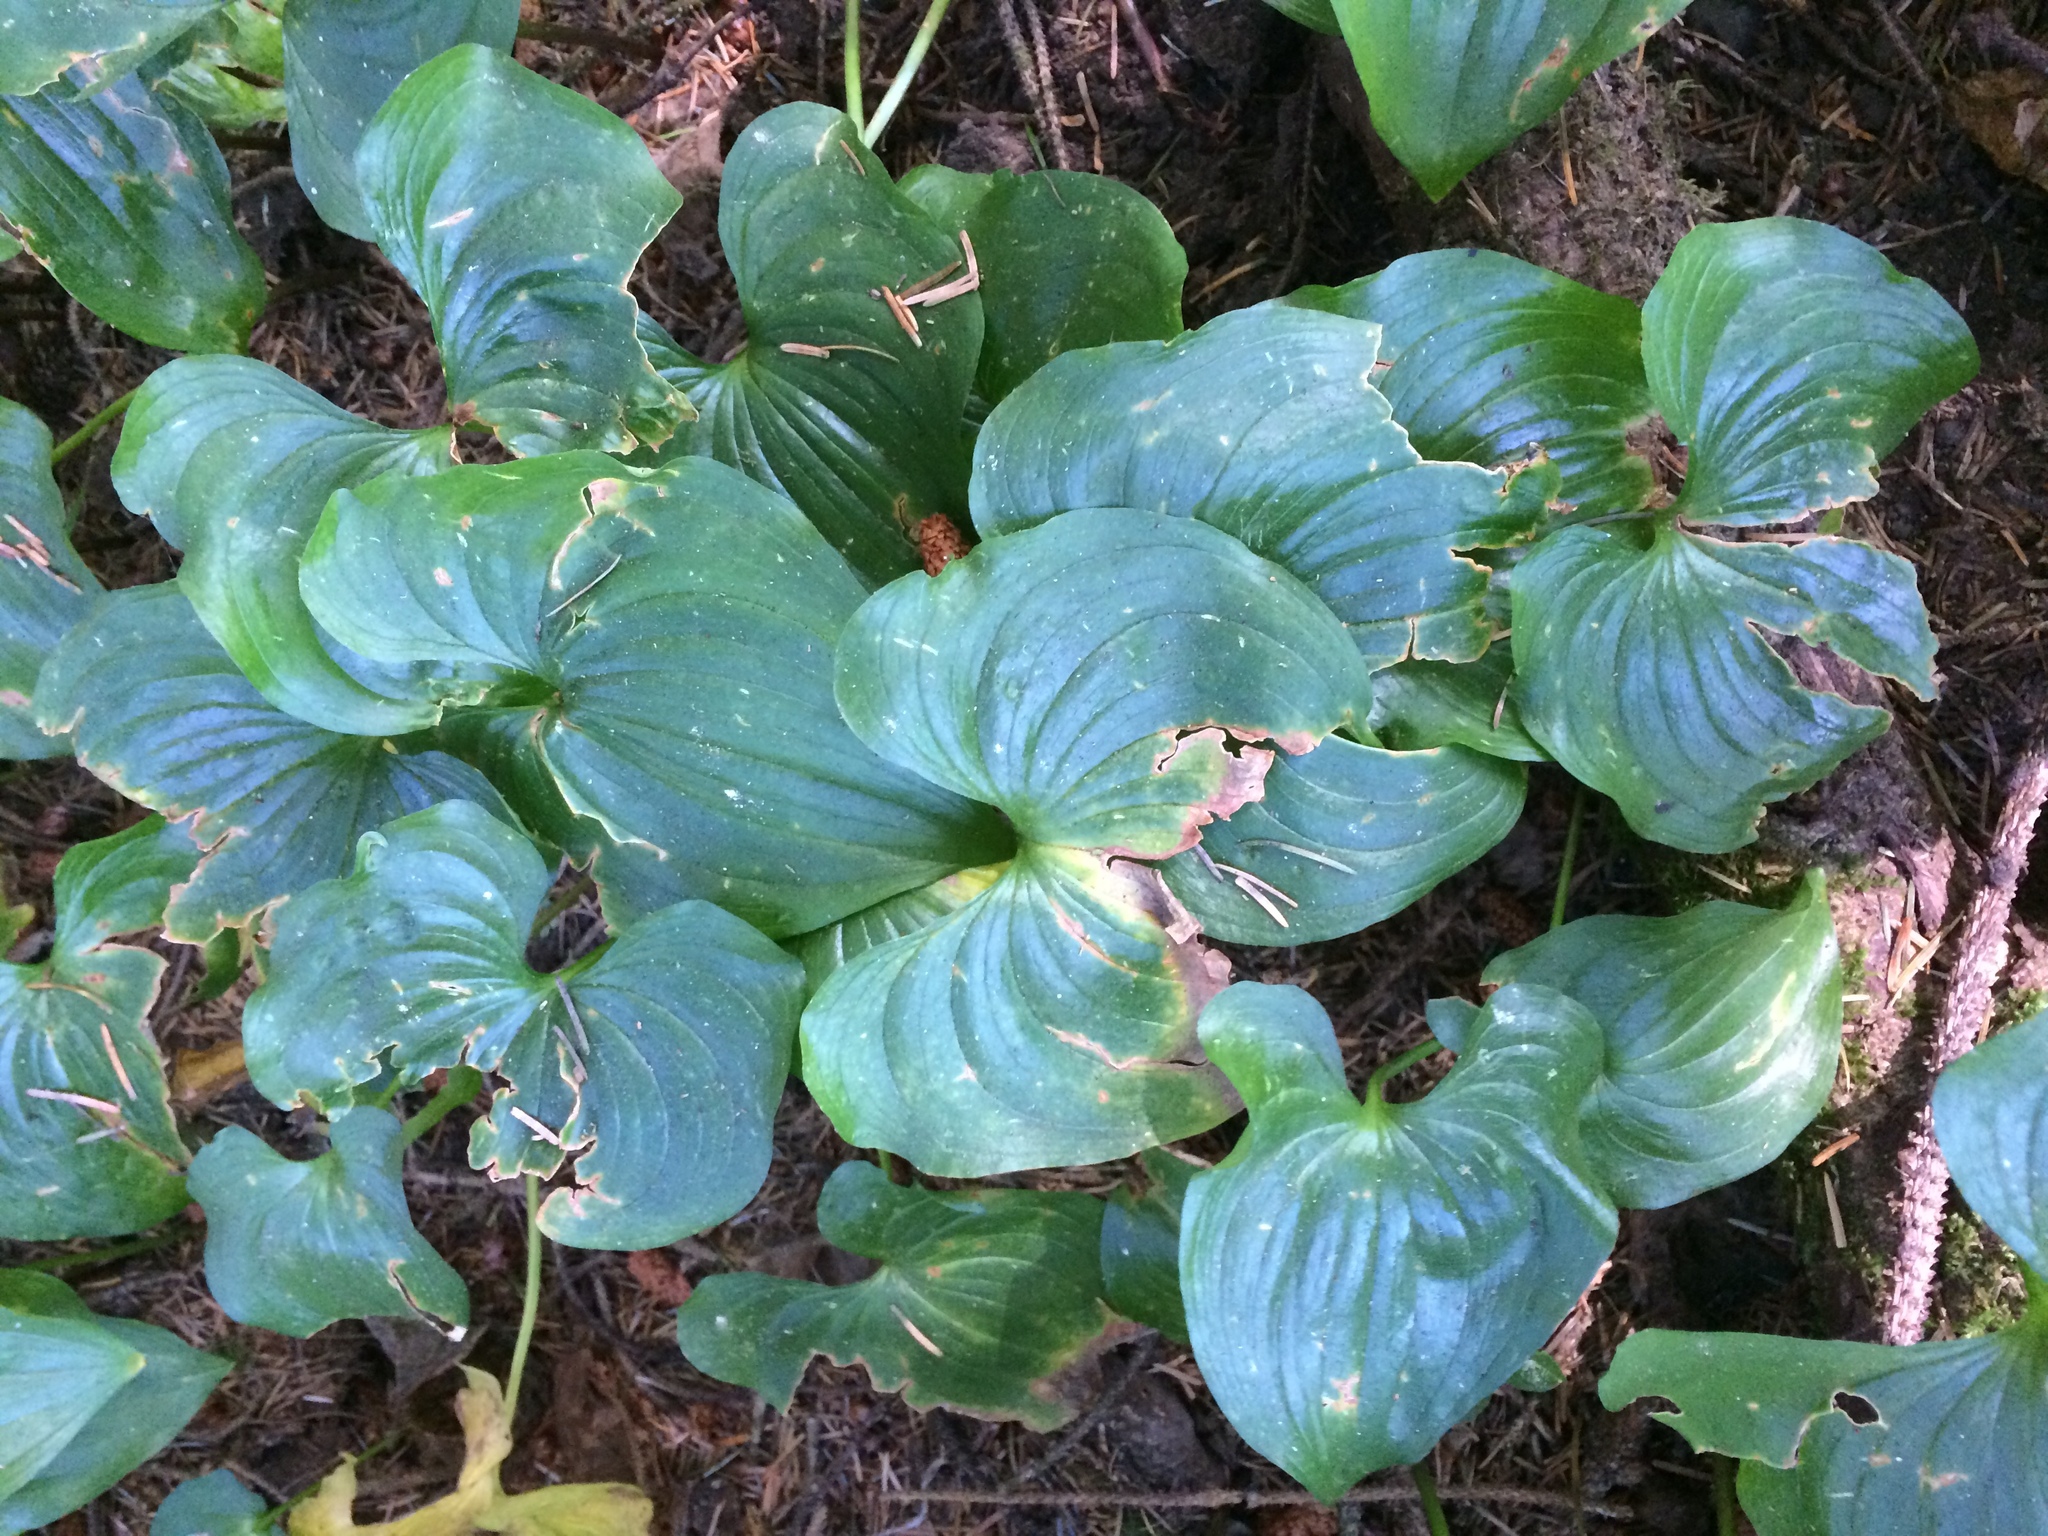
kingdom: Plantae
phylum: Tracheophyta
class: Liliopsida
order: Asparagales
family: Asparagaceae
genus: Maianthemum
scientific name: Maianthemum dilatatum
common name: False lily-of-the-valley
